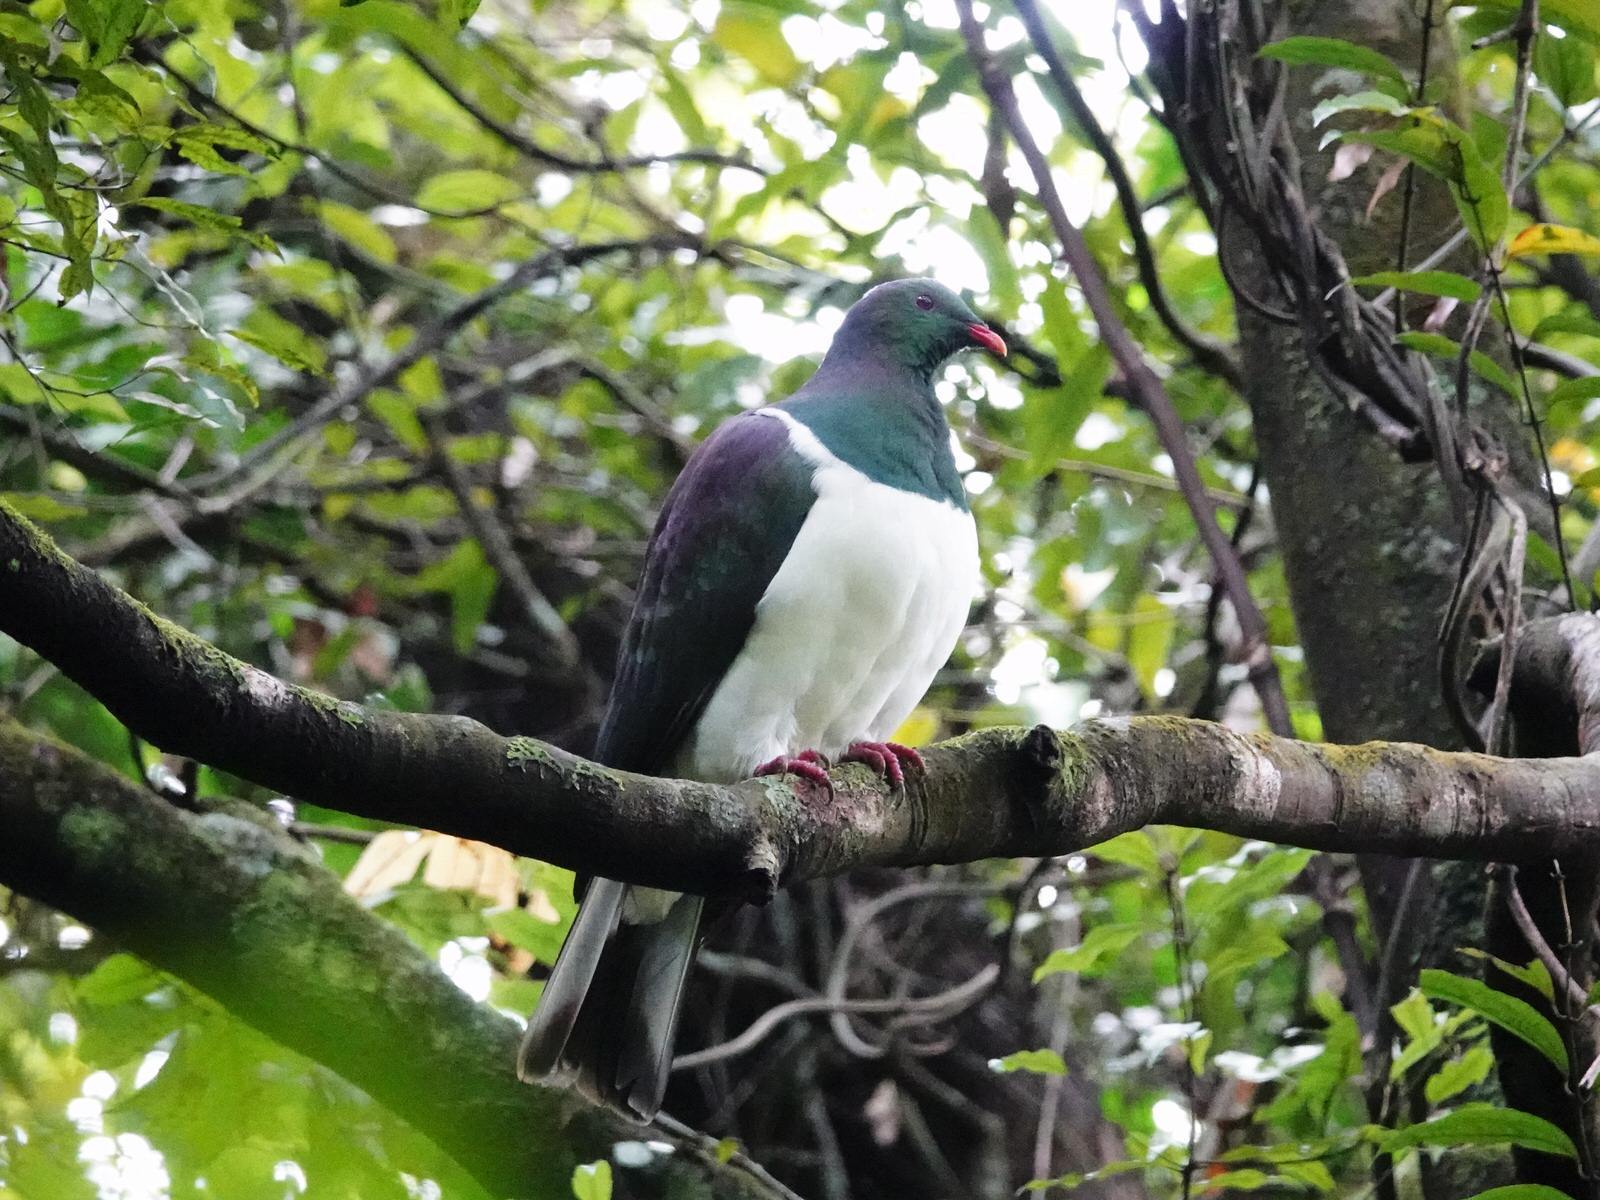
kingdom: Animalia
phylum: Chordata
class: Aves
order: Columbiformes
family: Columbidae
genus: Hemiphaga
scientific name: Hemiphaga novaeseelandiae
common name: New zealand pigeon
